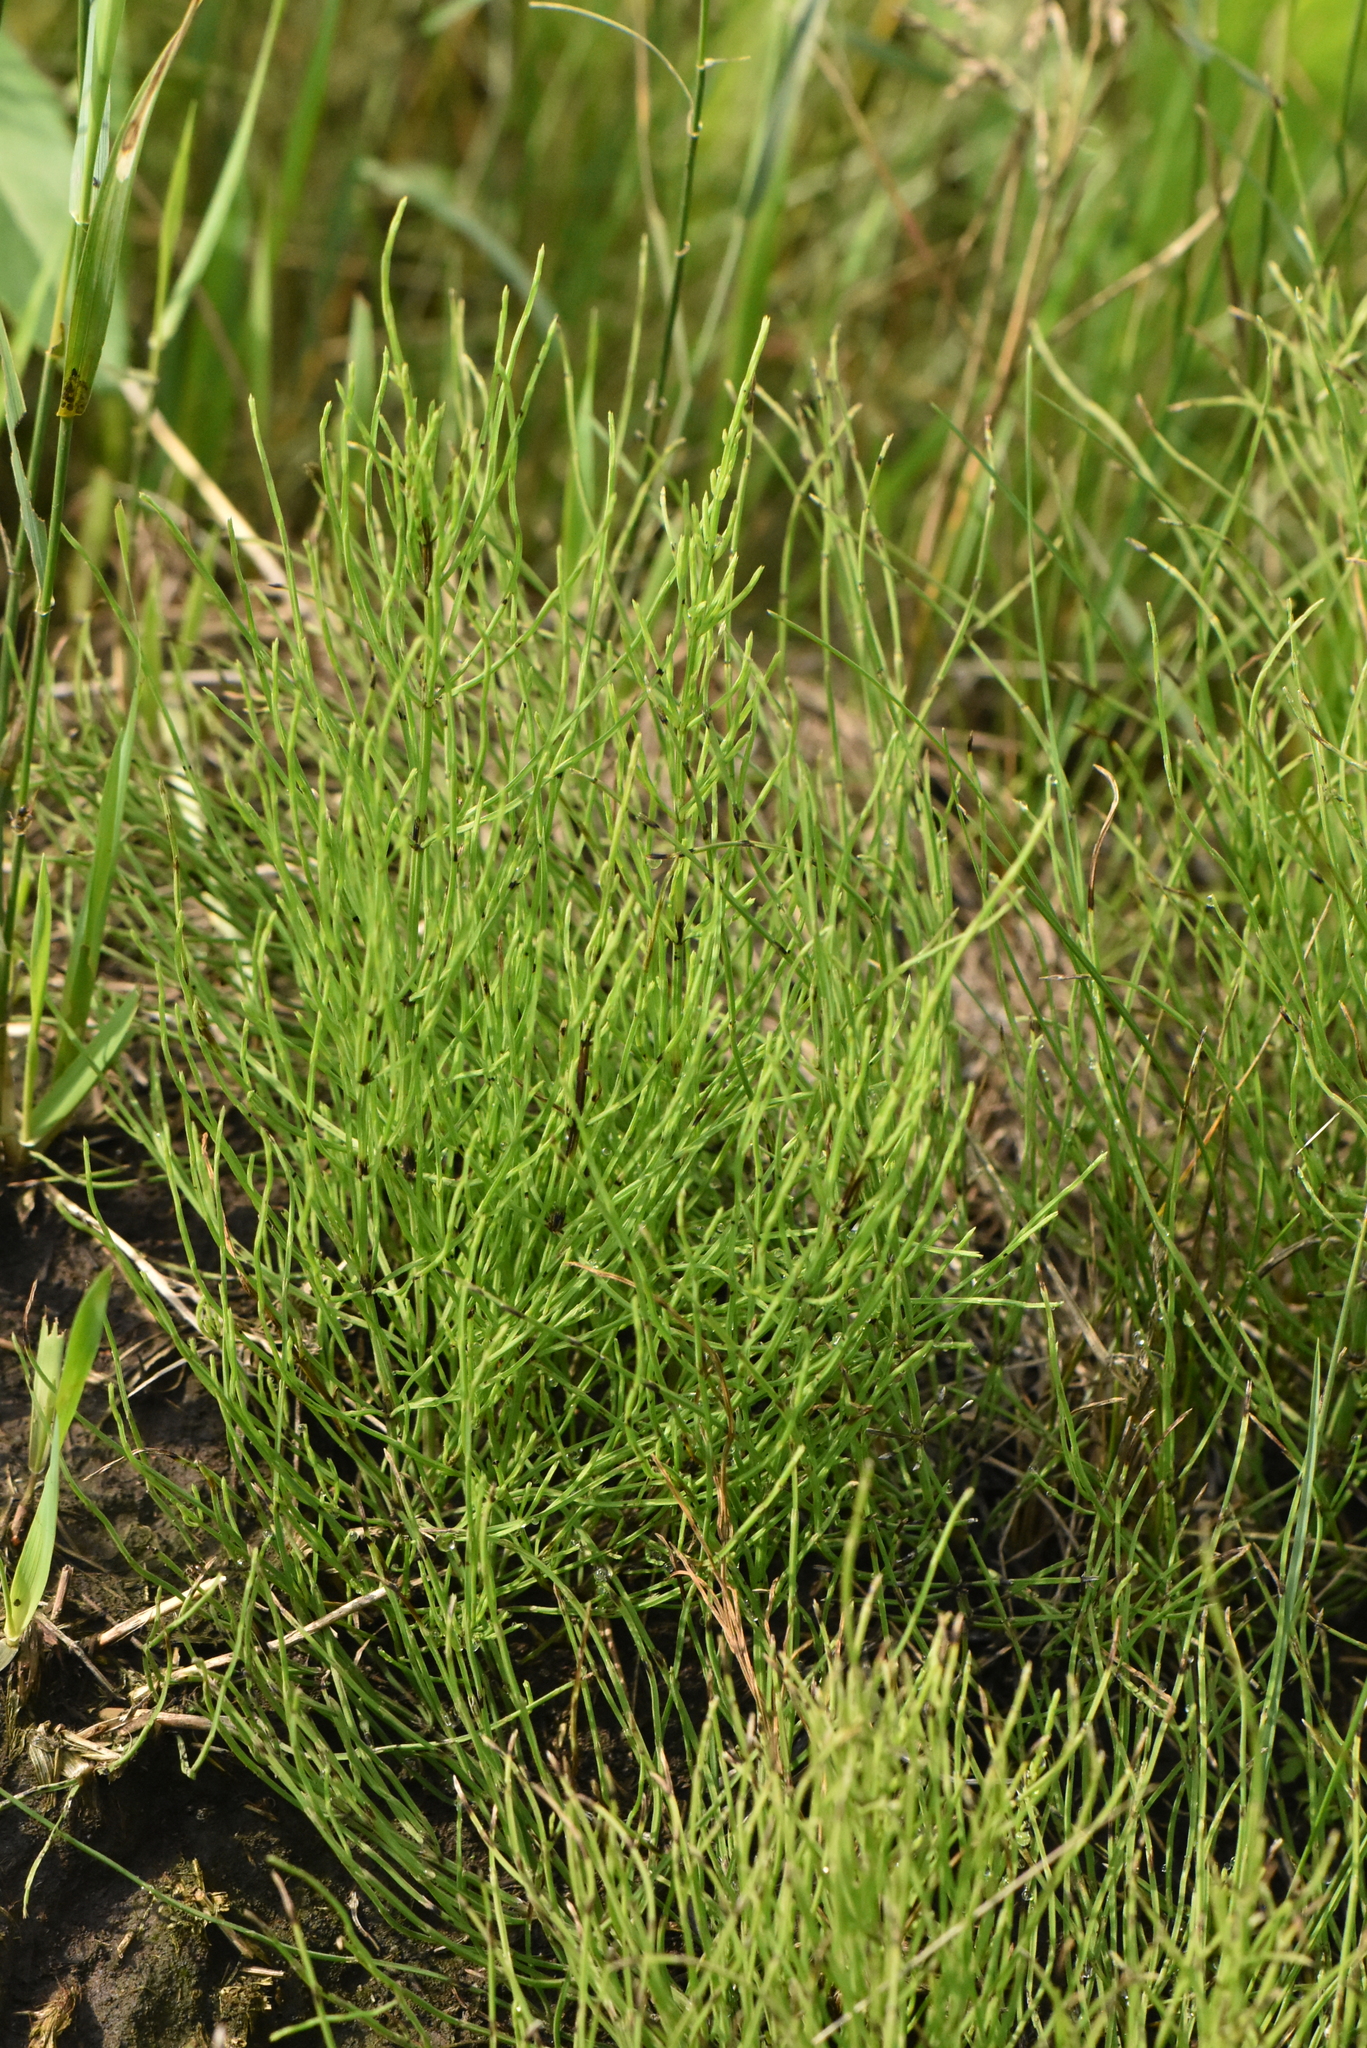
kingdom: Plantae
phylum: Tracheophyta
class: Polypodiopsida
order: Equisetales
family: Equisetaceae
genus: Equisetum
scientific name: Equisetum arvense
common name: Field horsetail
